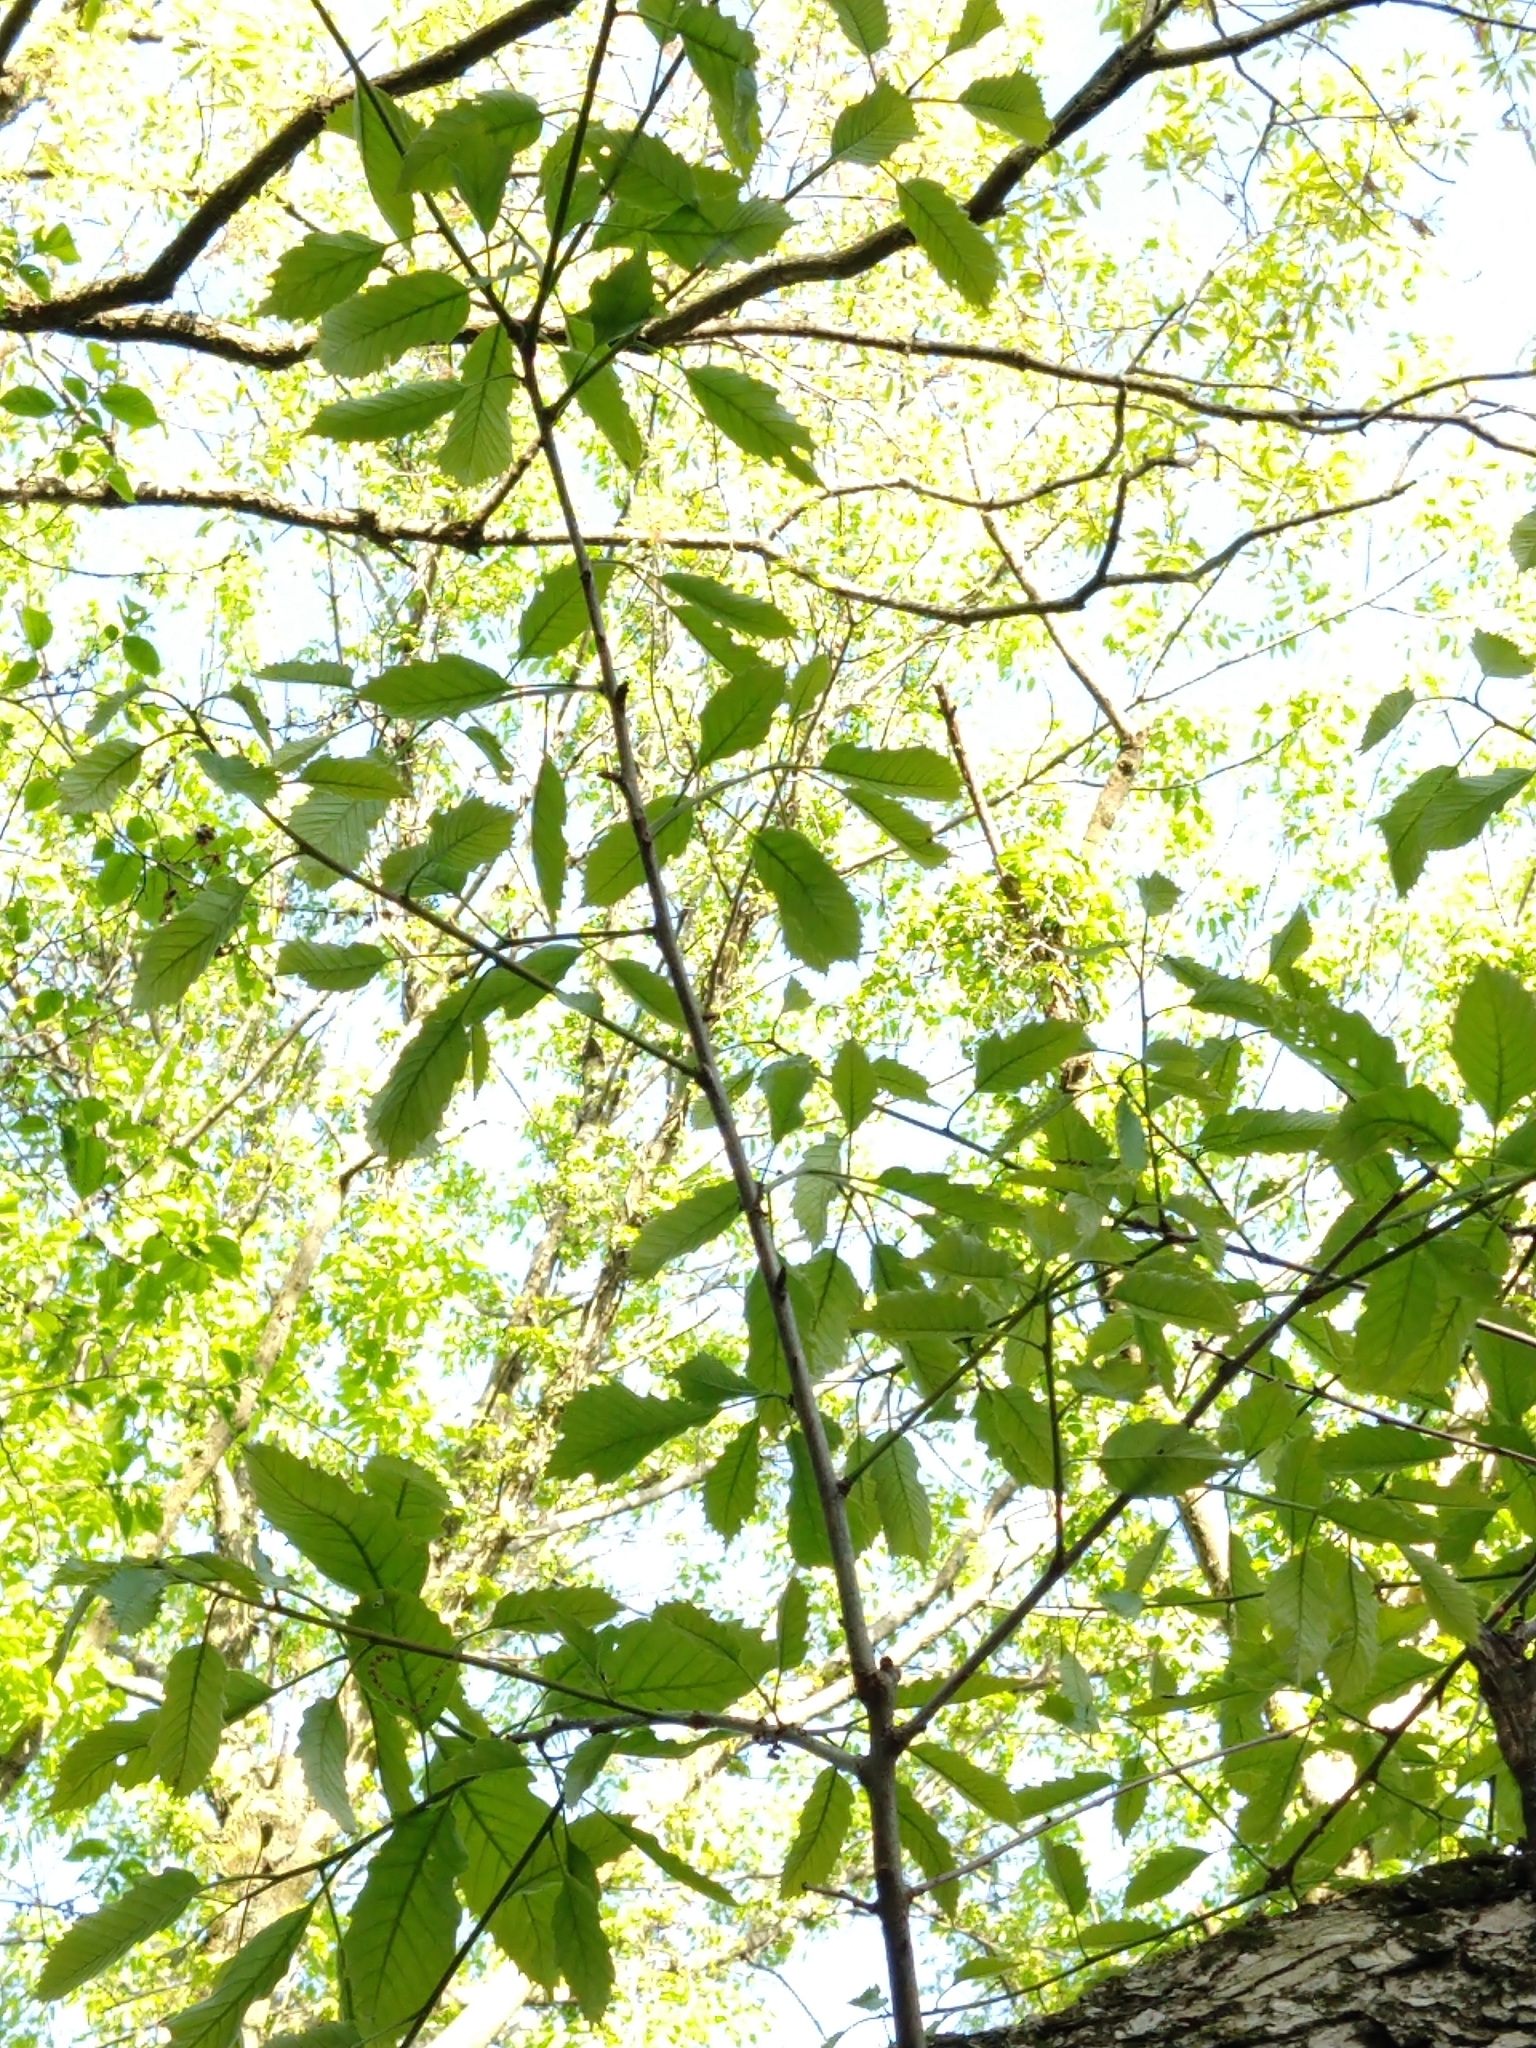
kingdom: Plantae
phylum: Tracheophyta
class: Magnoliopsida
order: Fagales
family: Fagaceae
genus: Quercus
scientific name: Quercus muehlenbergii
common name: Chinkapin oak
